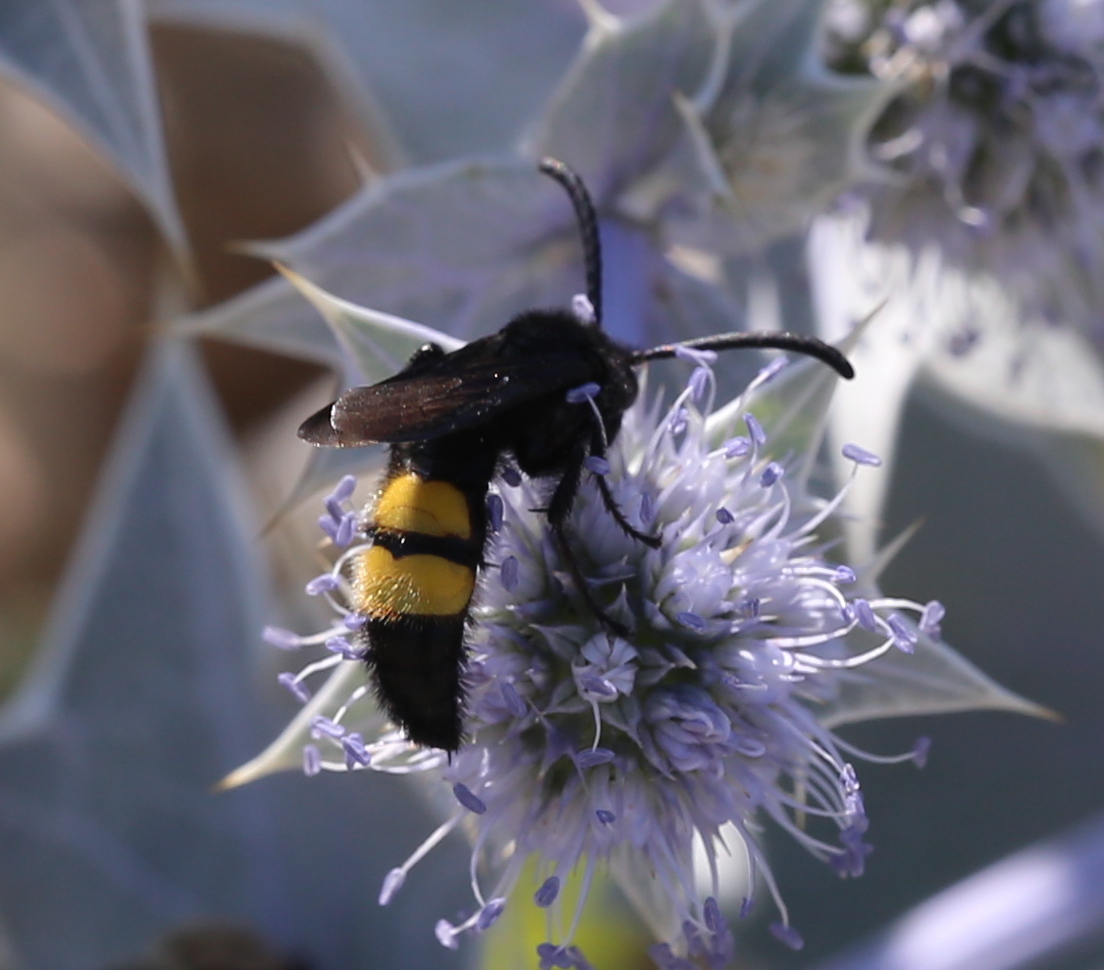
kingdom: Animalia
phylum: Arthropoda
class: Insecta
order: Hymenoptera
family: Scoliidae
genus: Scolia
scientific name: Scolia hirta
